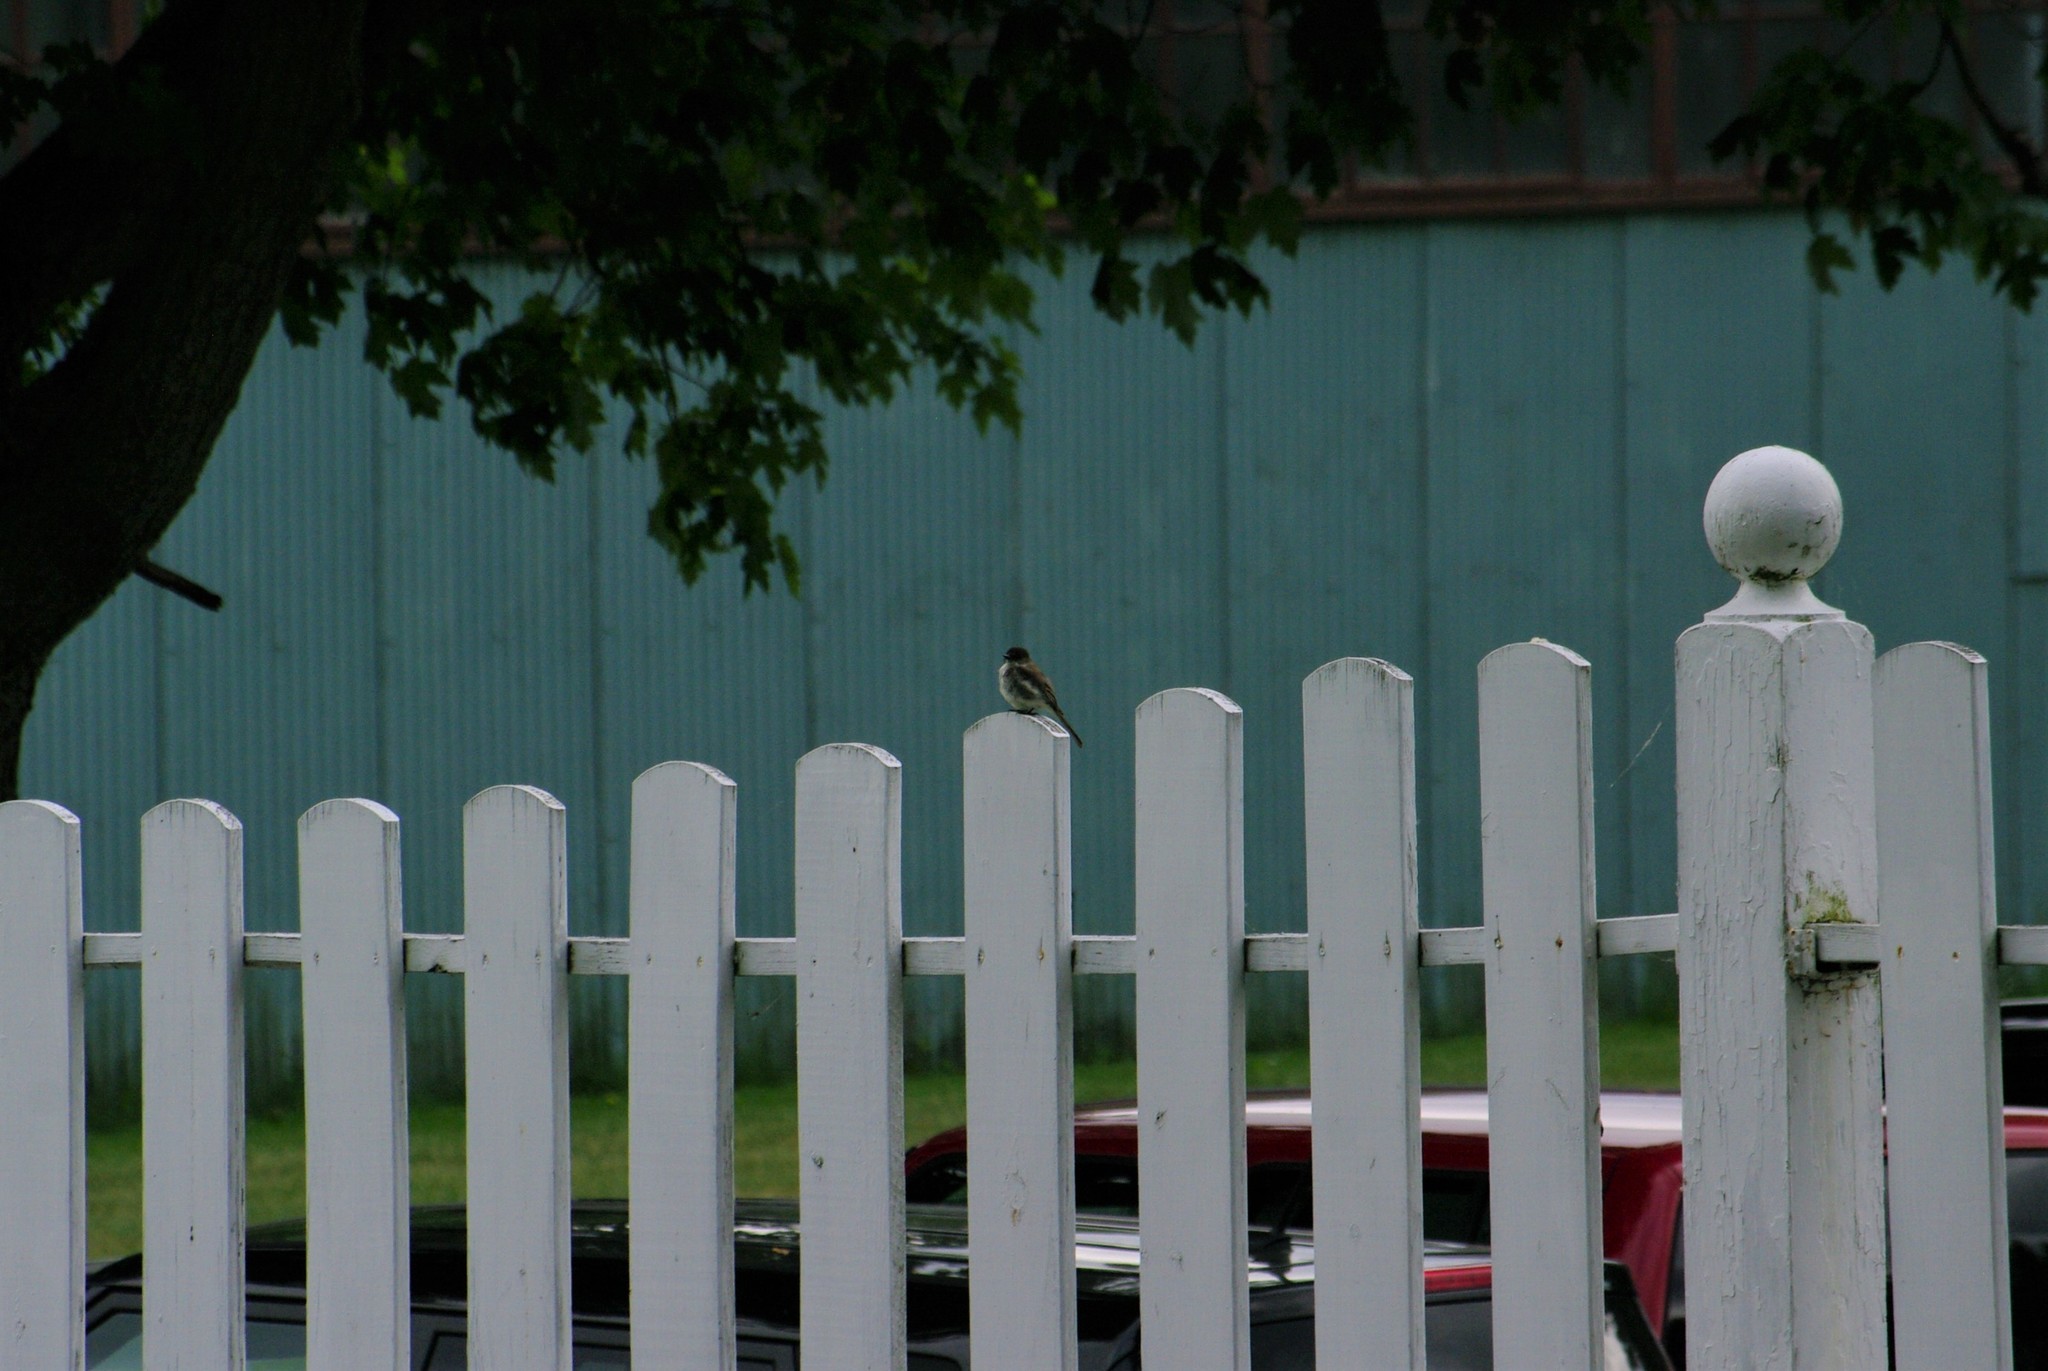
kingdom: Animalia
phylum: Chordata
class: Aves
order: Passeriformes
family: Tyrannidae
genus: Sayornis
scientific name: Sayornis phoebe
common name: Eastern phoebe
